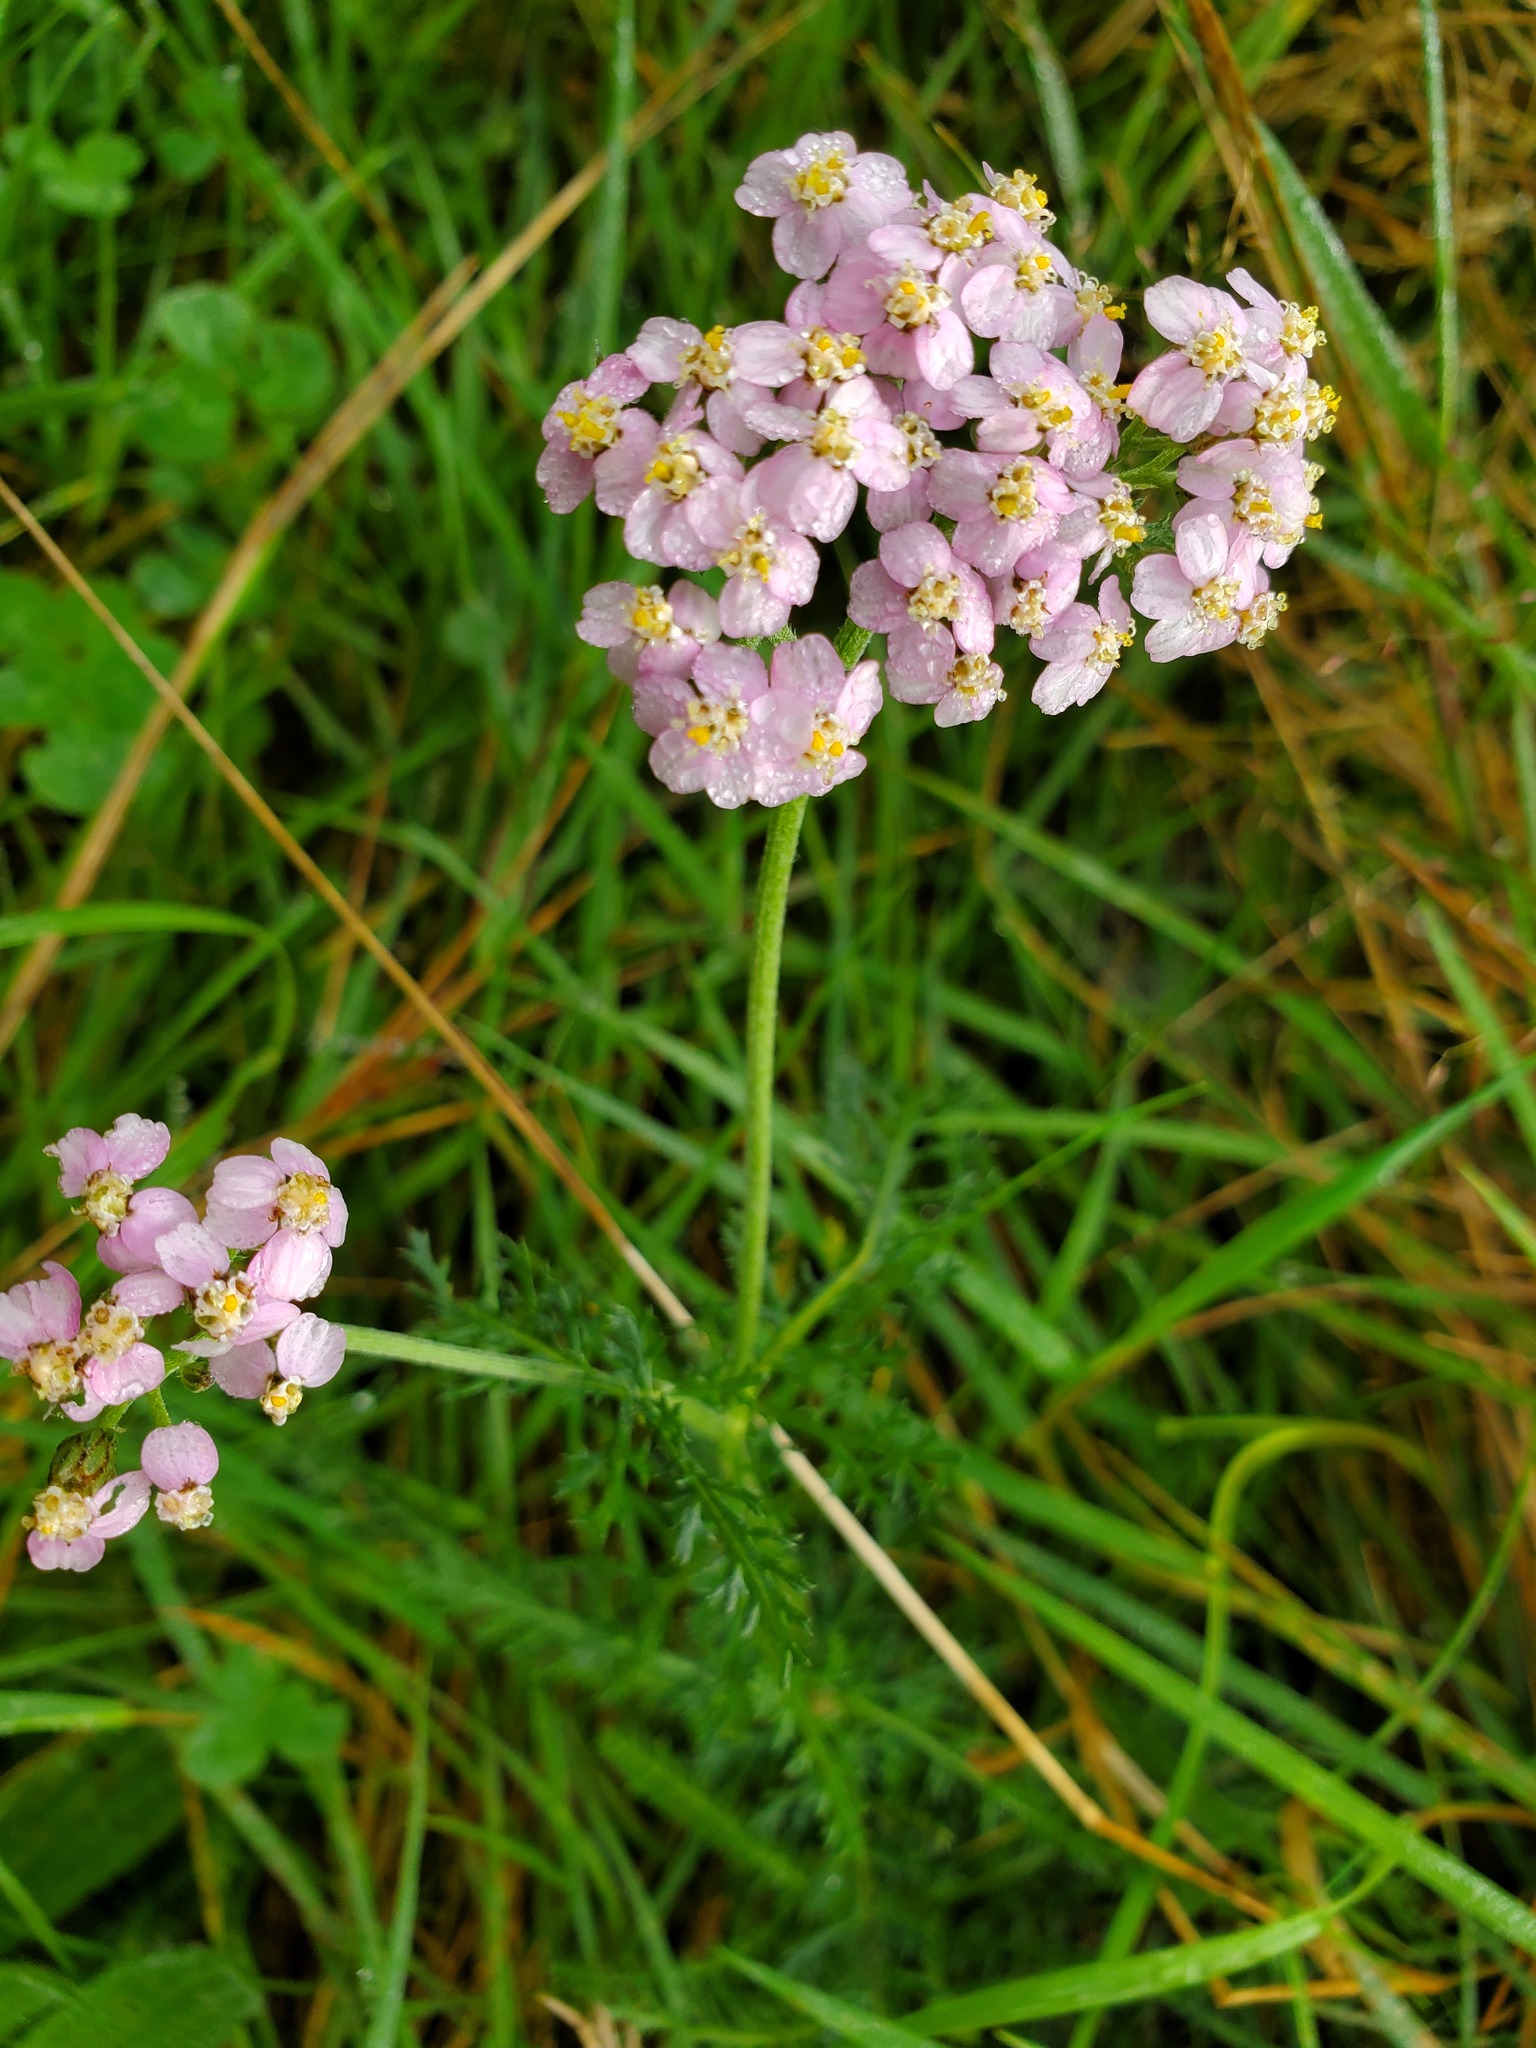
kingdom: Plantae
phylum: Tracheophyta
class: Magnoliopsida
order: Asterales
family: Asteraceae
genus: Achillea
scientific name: Achillea millefolium
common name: Yarrow
